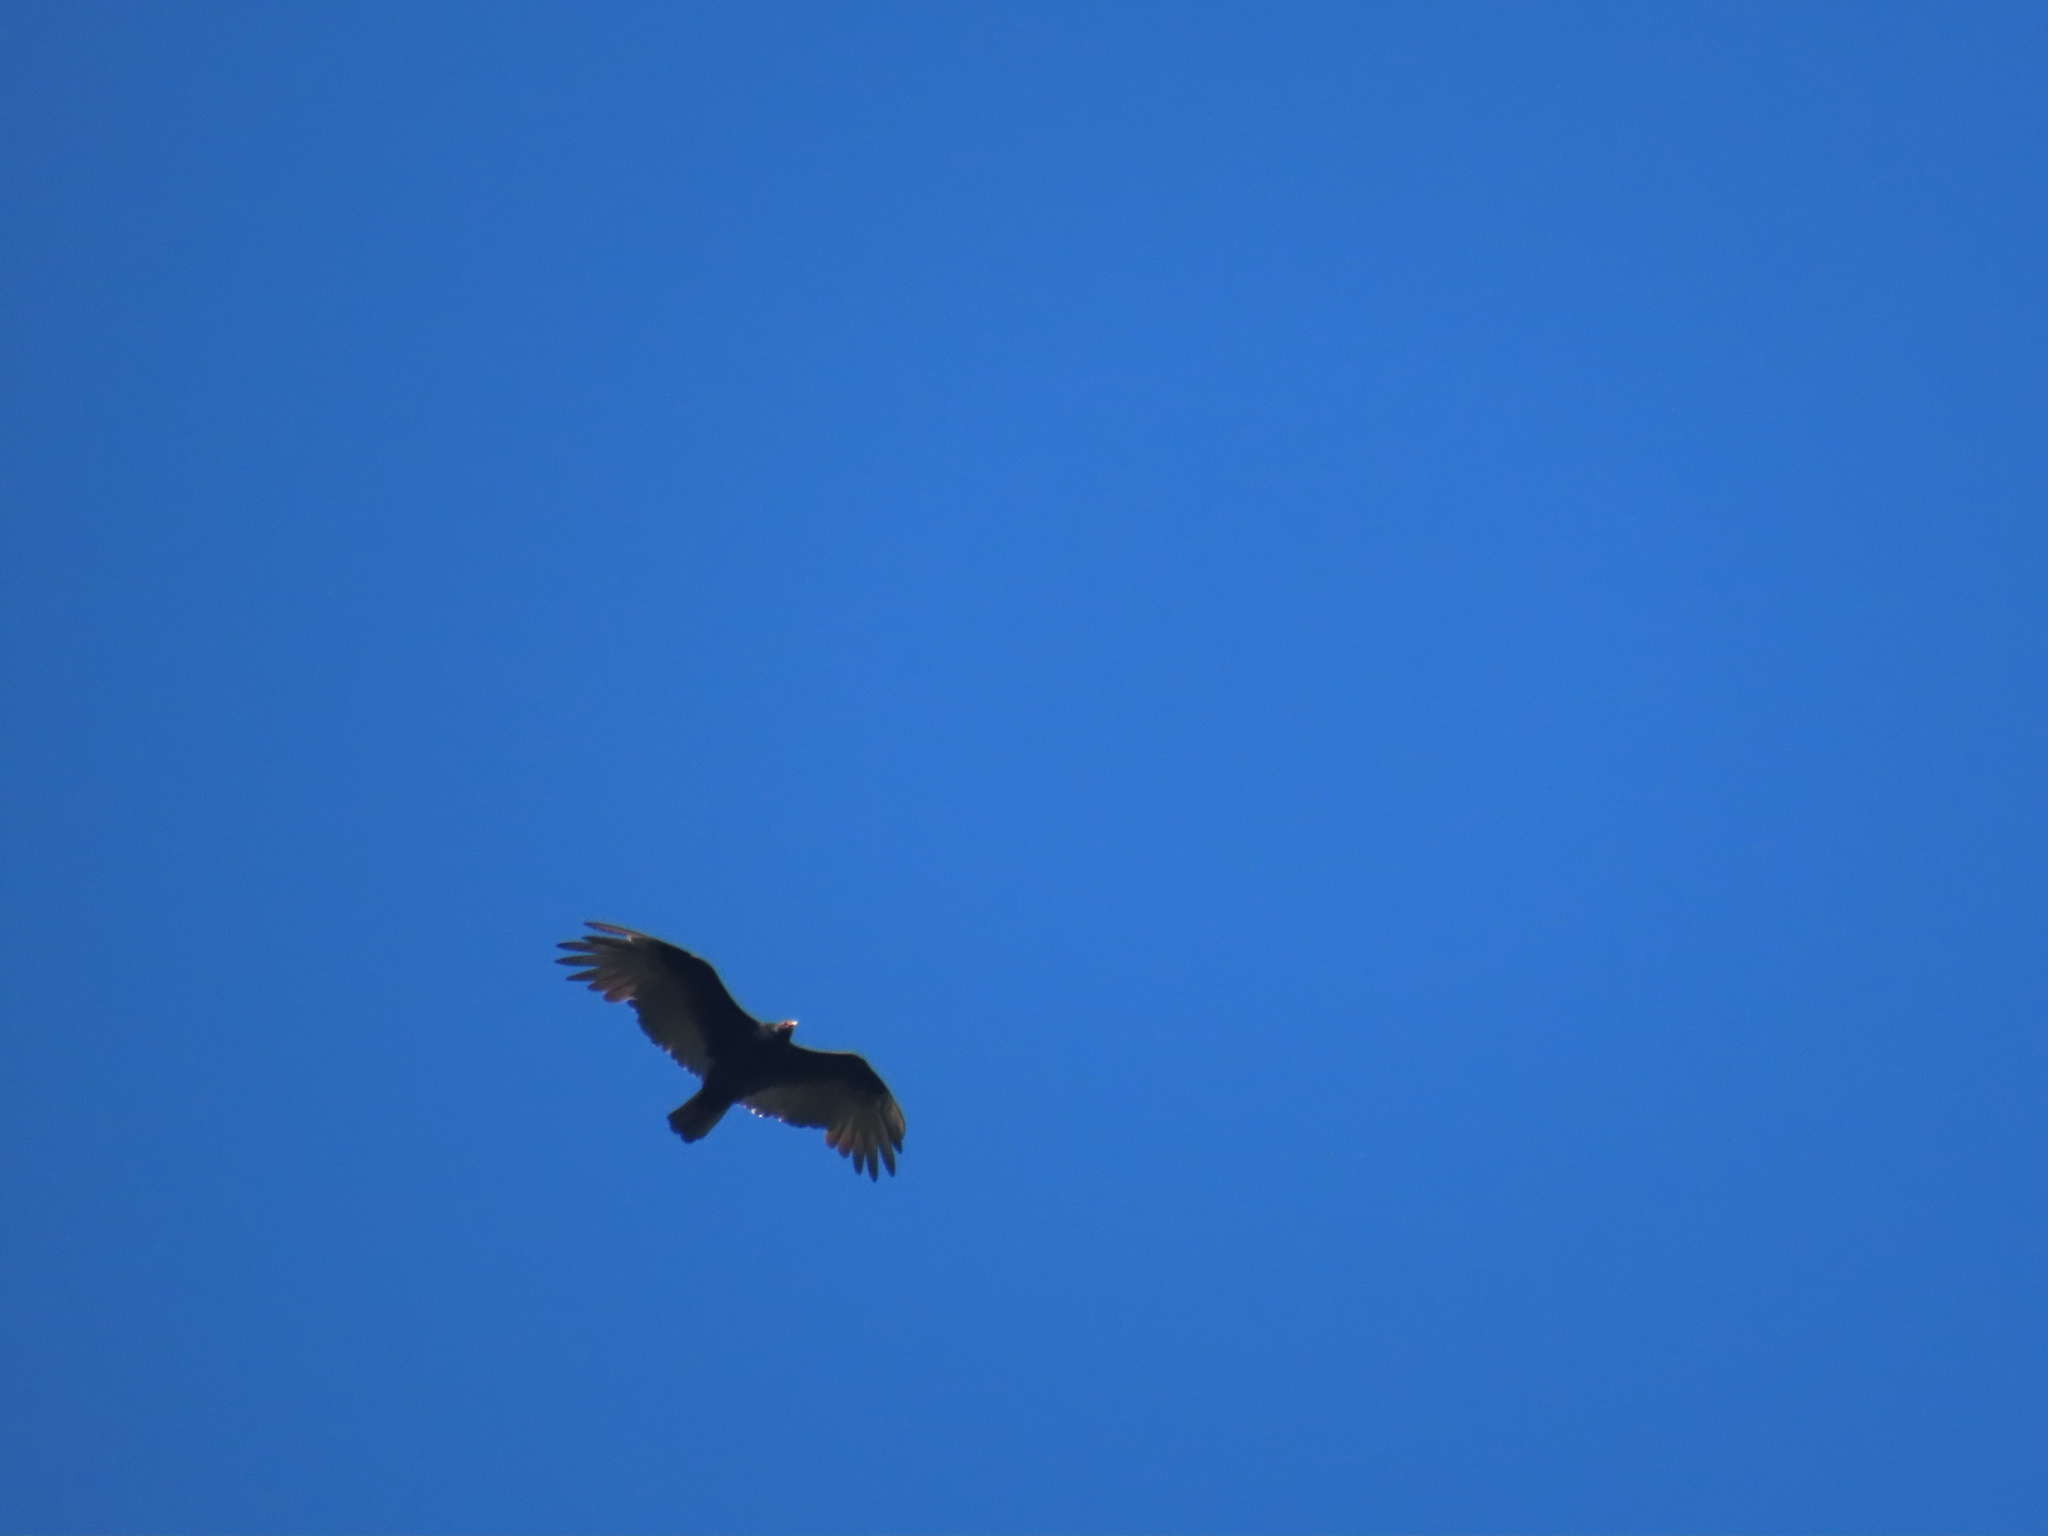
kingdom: Animalia
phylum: Chordata
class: Aves
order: Accipitriformes
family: Cathartidae
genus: Cathartes
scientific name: Cathartes aura
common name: Turkey vulture
